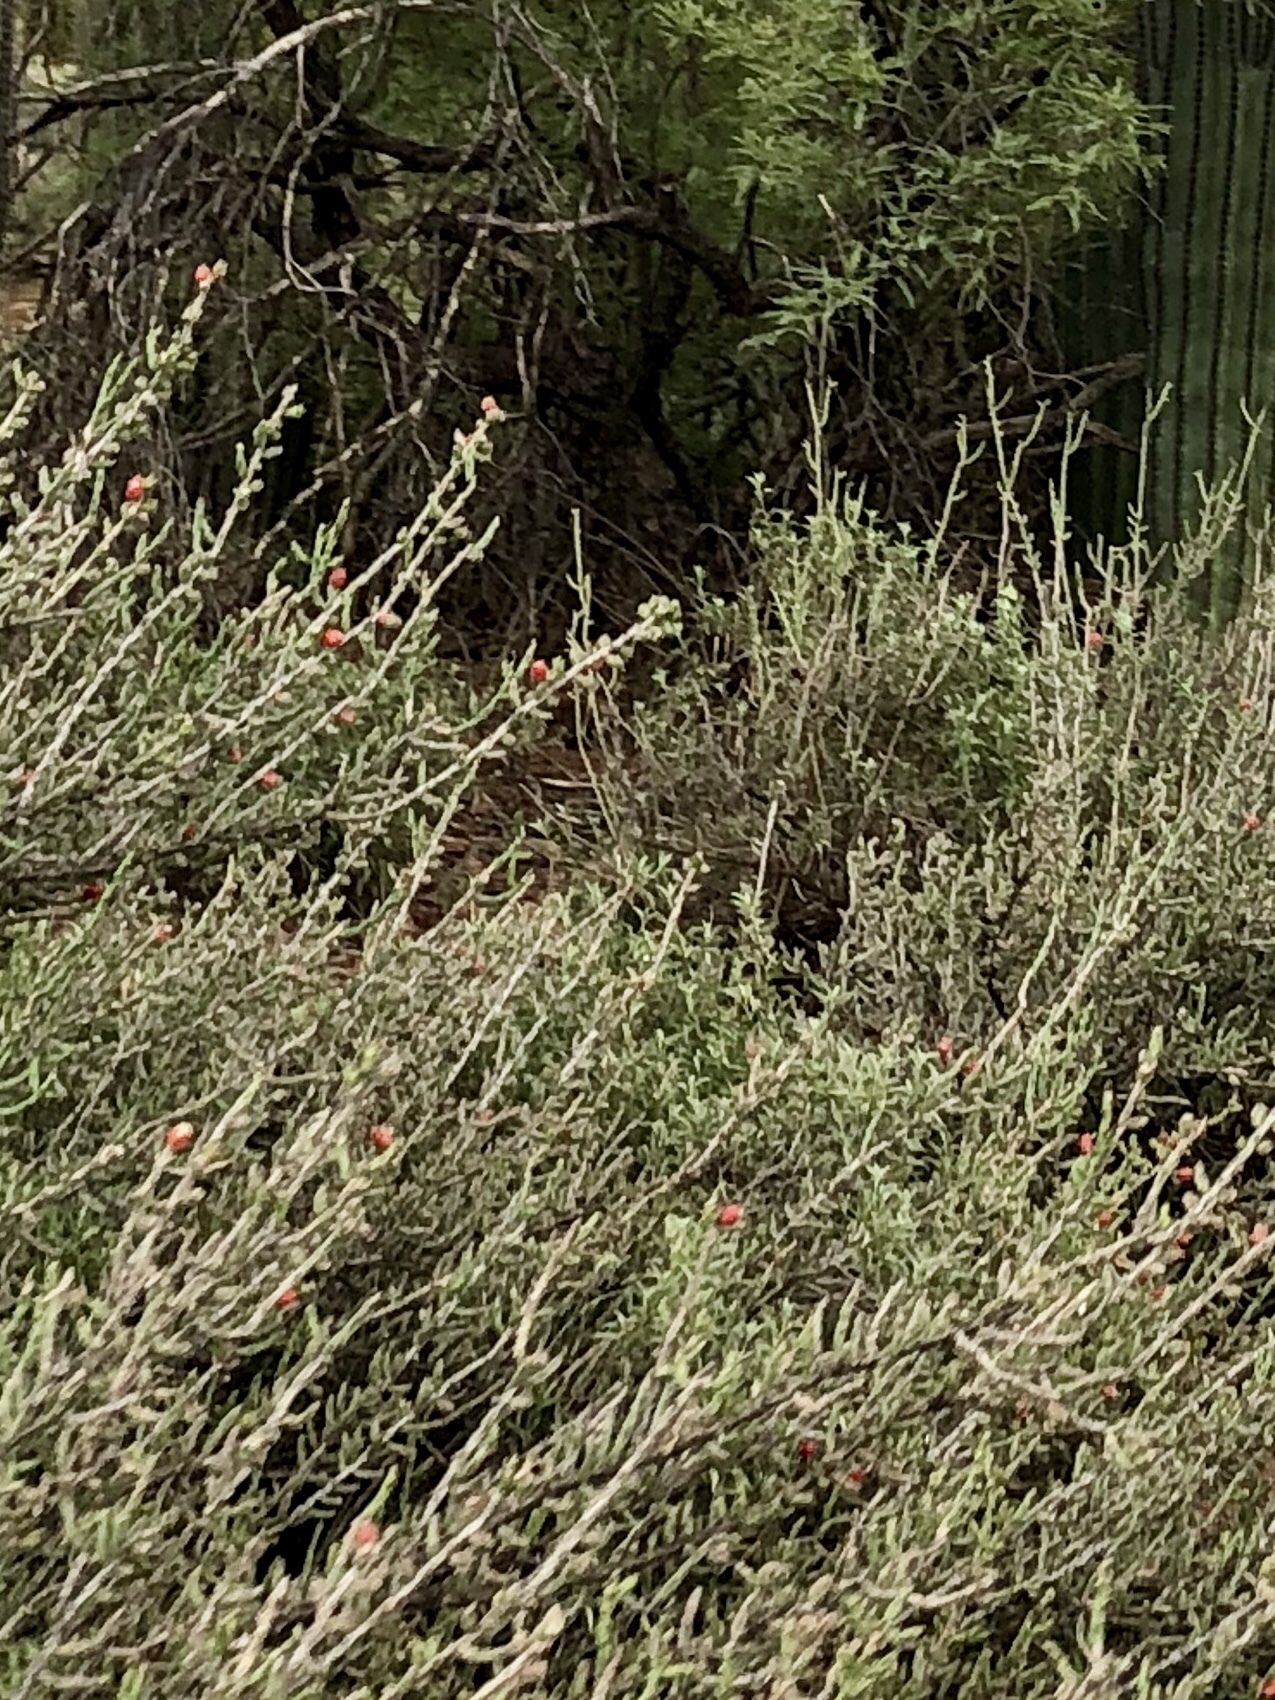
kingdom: Plantae
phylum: Tracheophyta
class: Magnoliopsida
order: Caryophyllales
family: Cactaceae
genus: Cylindropuntia
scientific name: Cylindropuntia leptocaulis
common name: Christmas cactus
